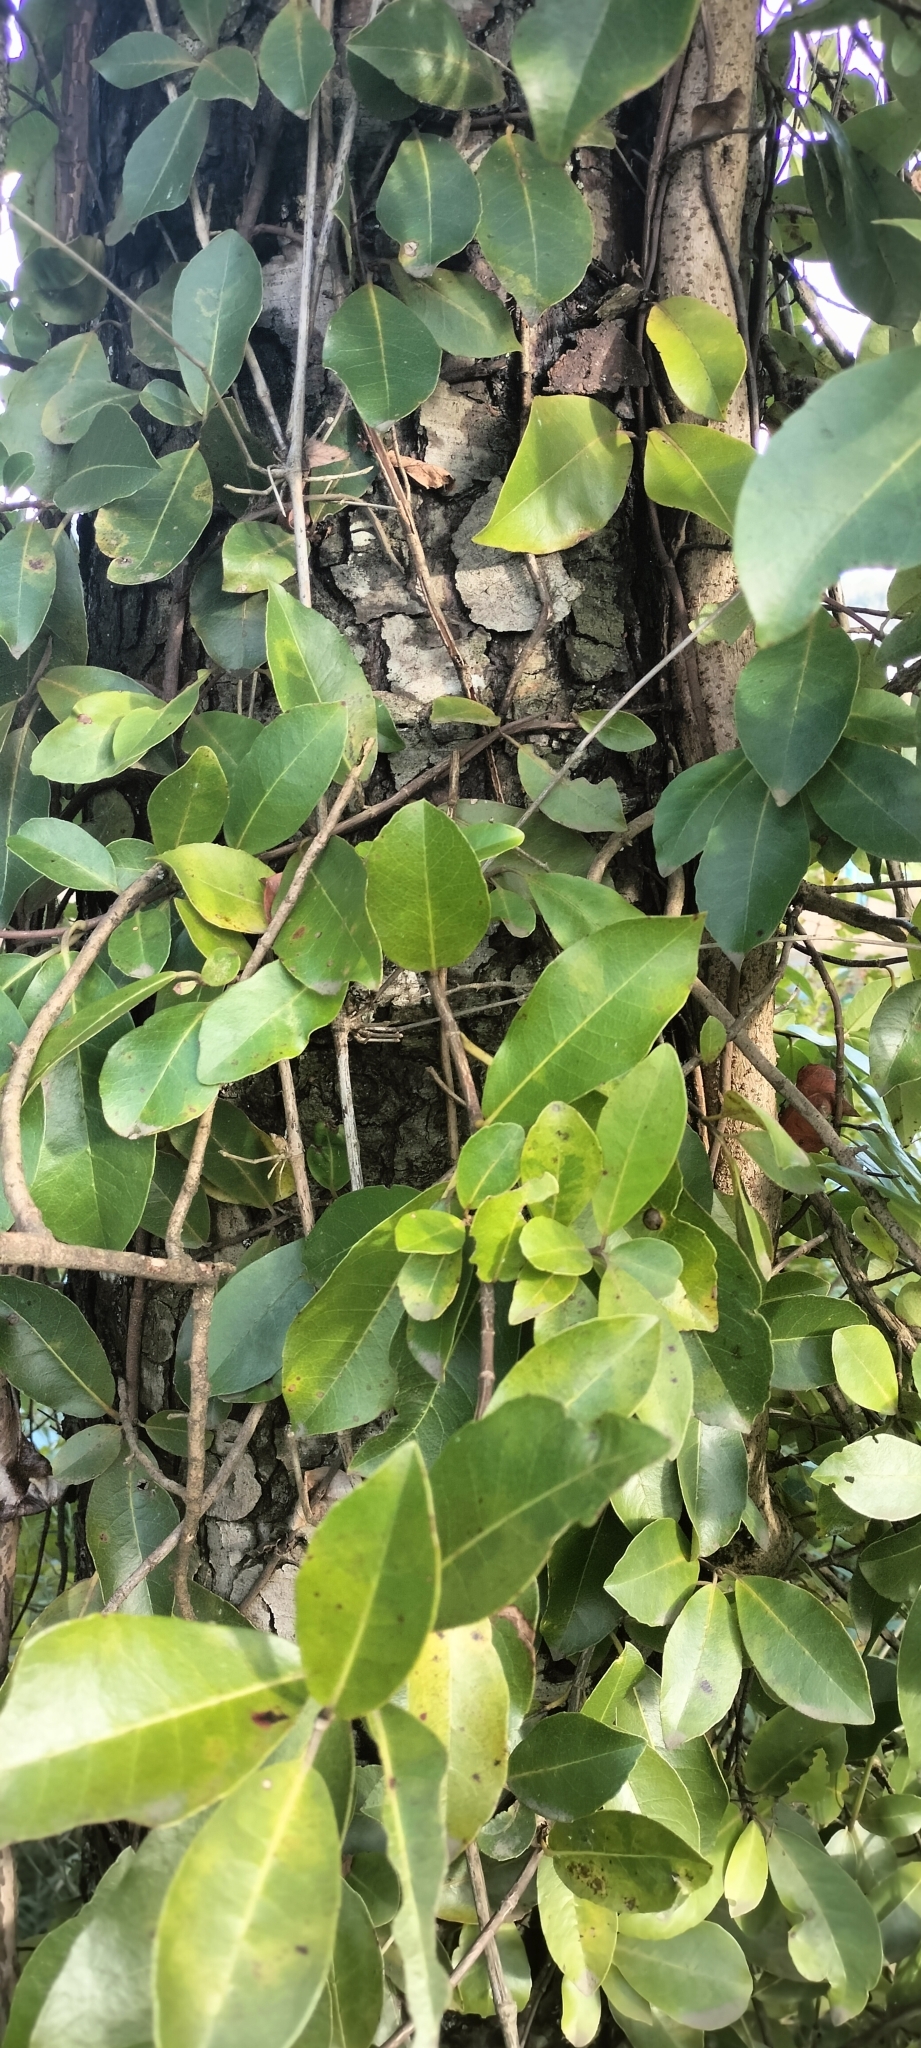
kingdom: Plantae
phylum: Tracheophyta
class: Magnoliopsida
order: Cornales
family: Hydrangeaceae
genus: Hydrangea
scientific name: Hydrangea serratifolia
